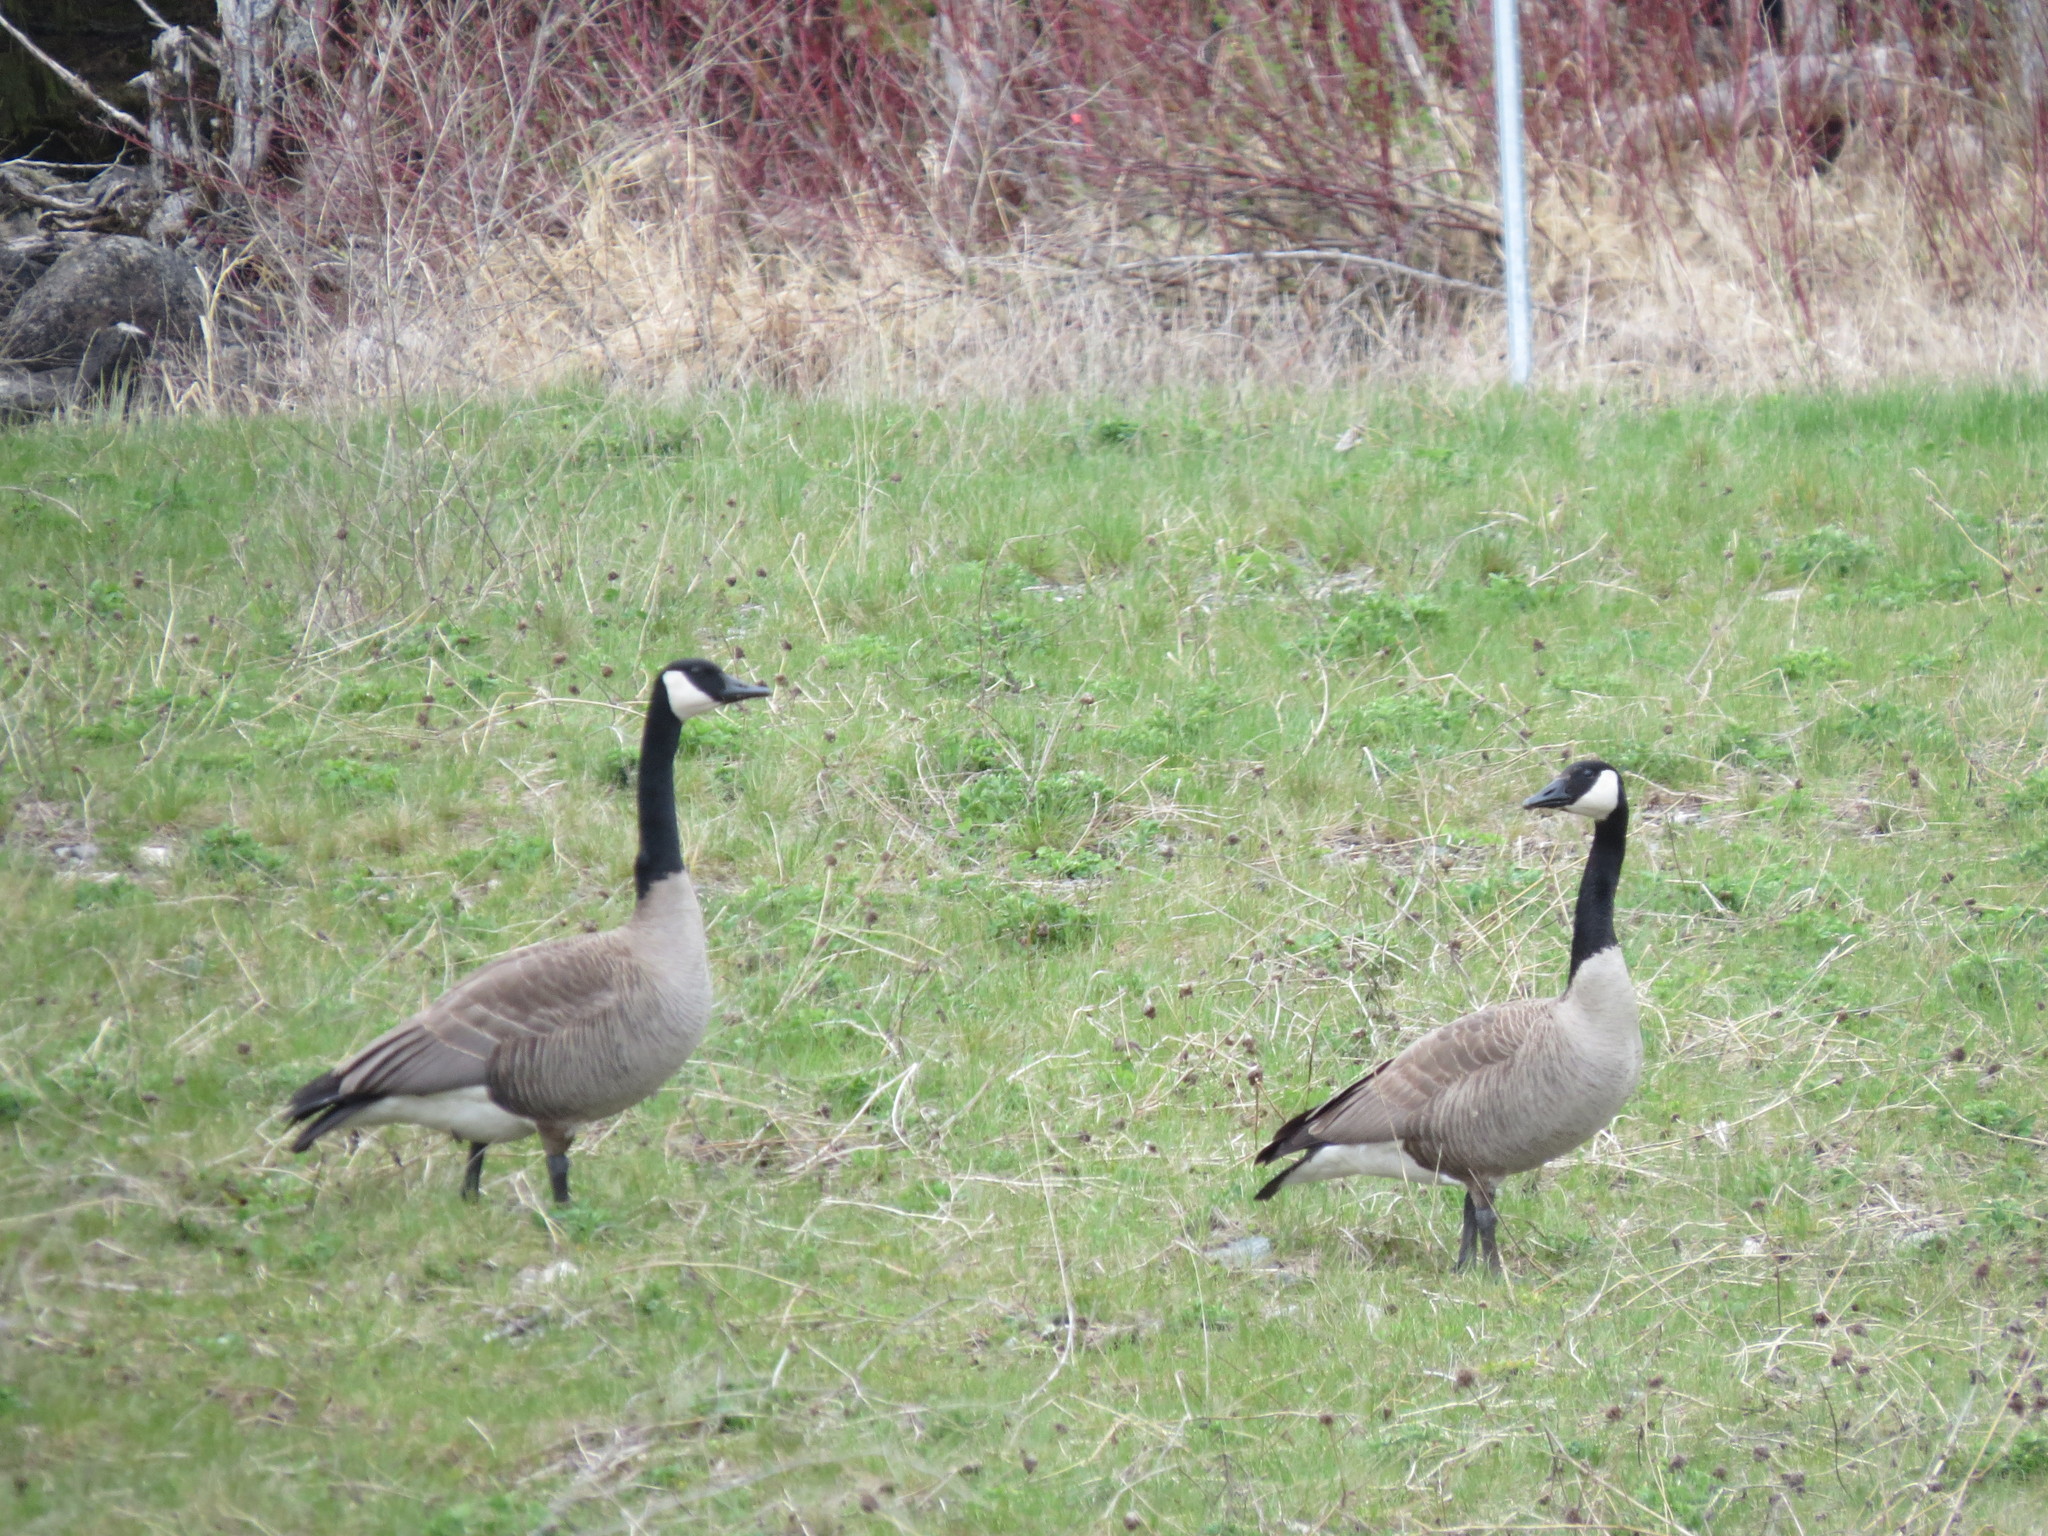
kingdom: Animalia
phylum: Chordata
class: Aves
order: Anseriformes
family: Anatidae
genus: Branta
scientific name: Branta canadensis
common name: Canada goose
